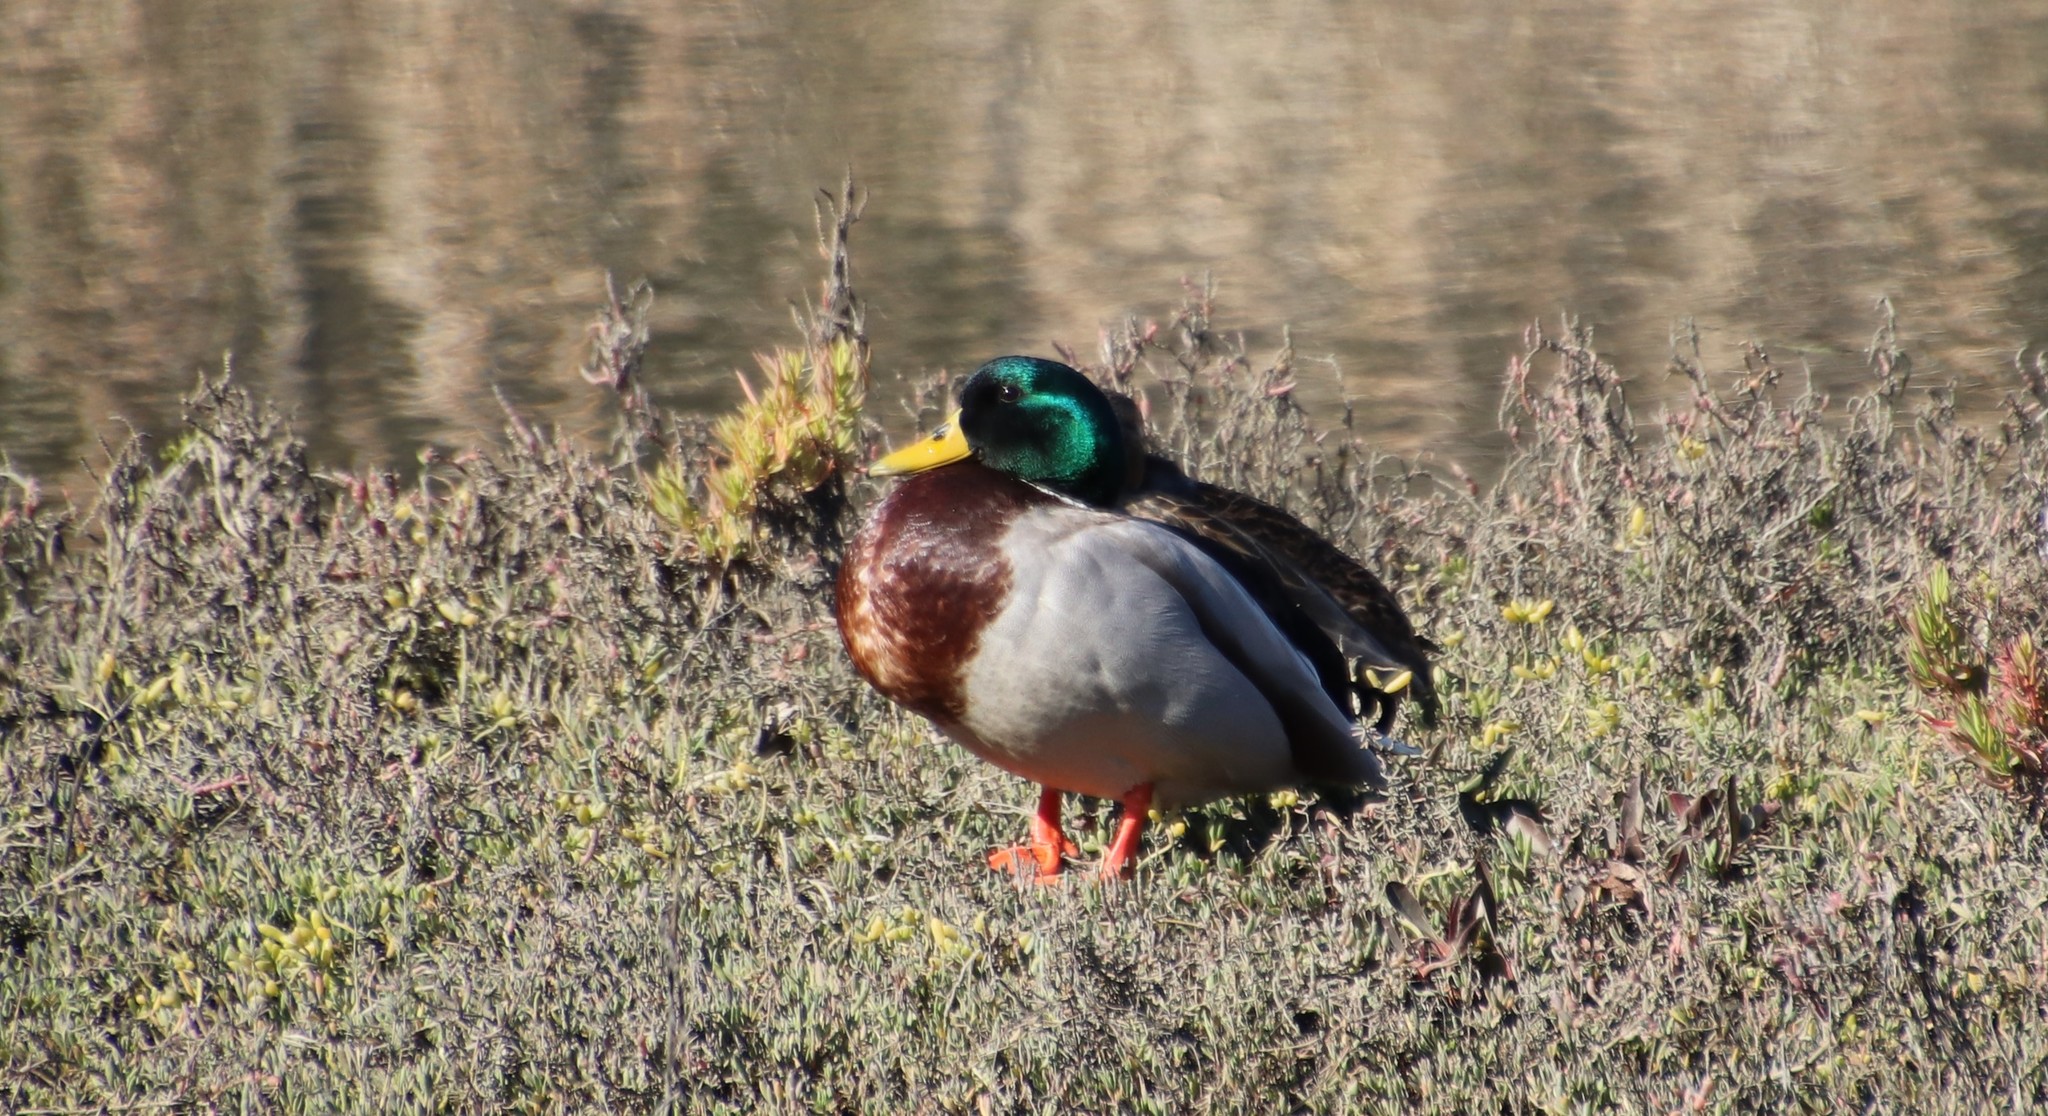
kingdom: Animalia
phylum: Chordata
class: Aves
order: Anseriformes
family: Anatidae
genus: Anas
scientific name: Anas platyrhynchos
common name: Mallard
